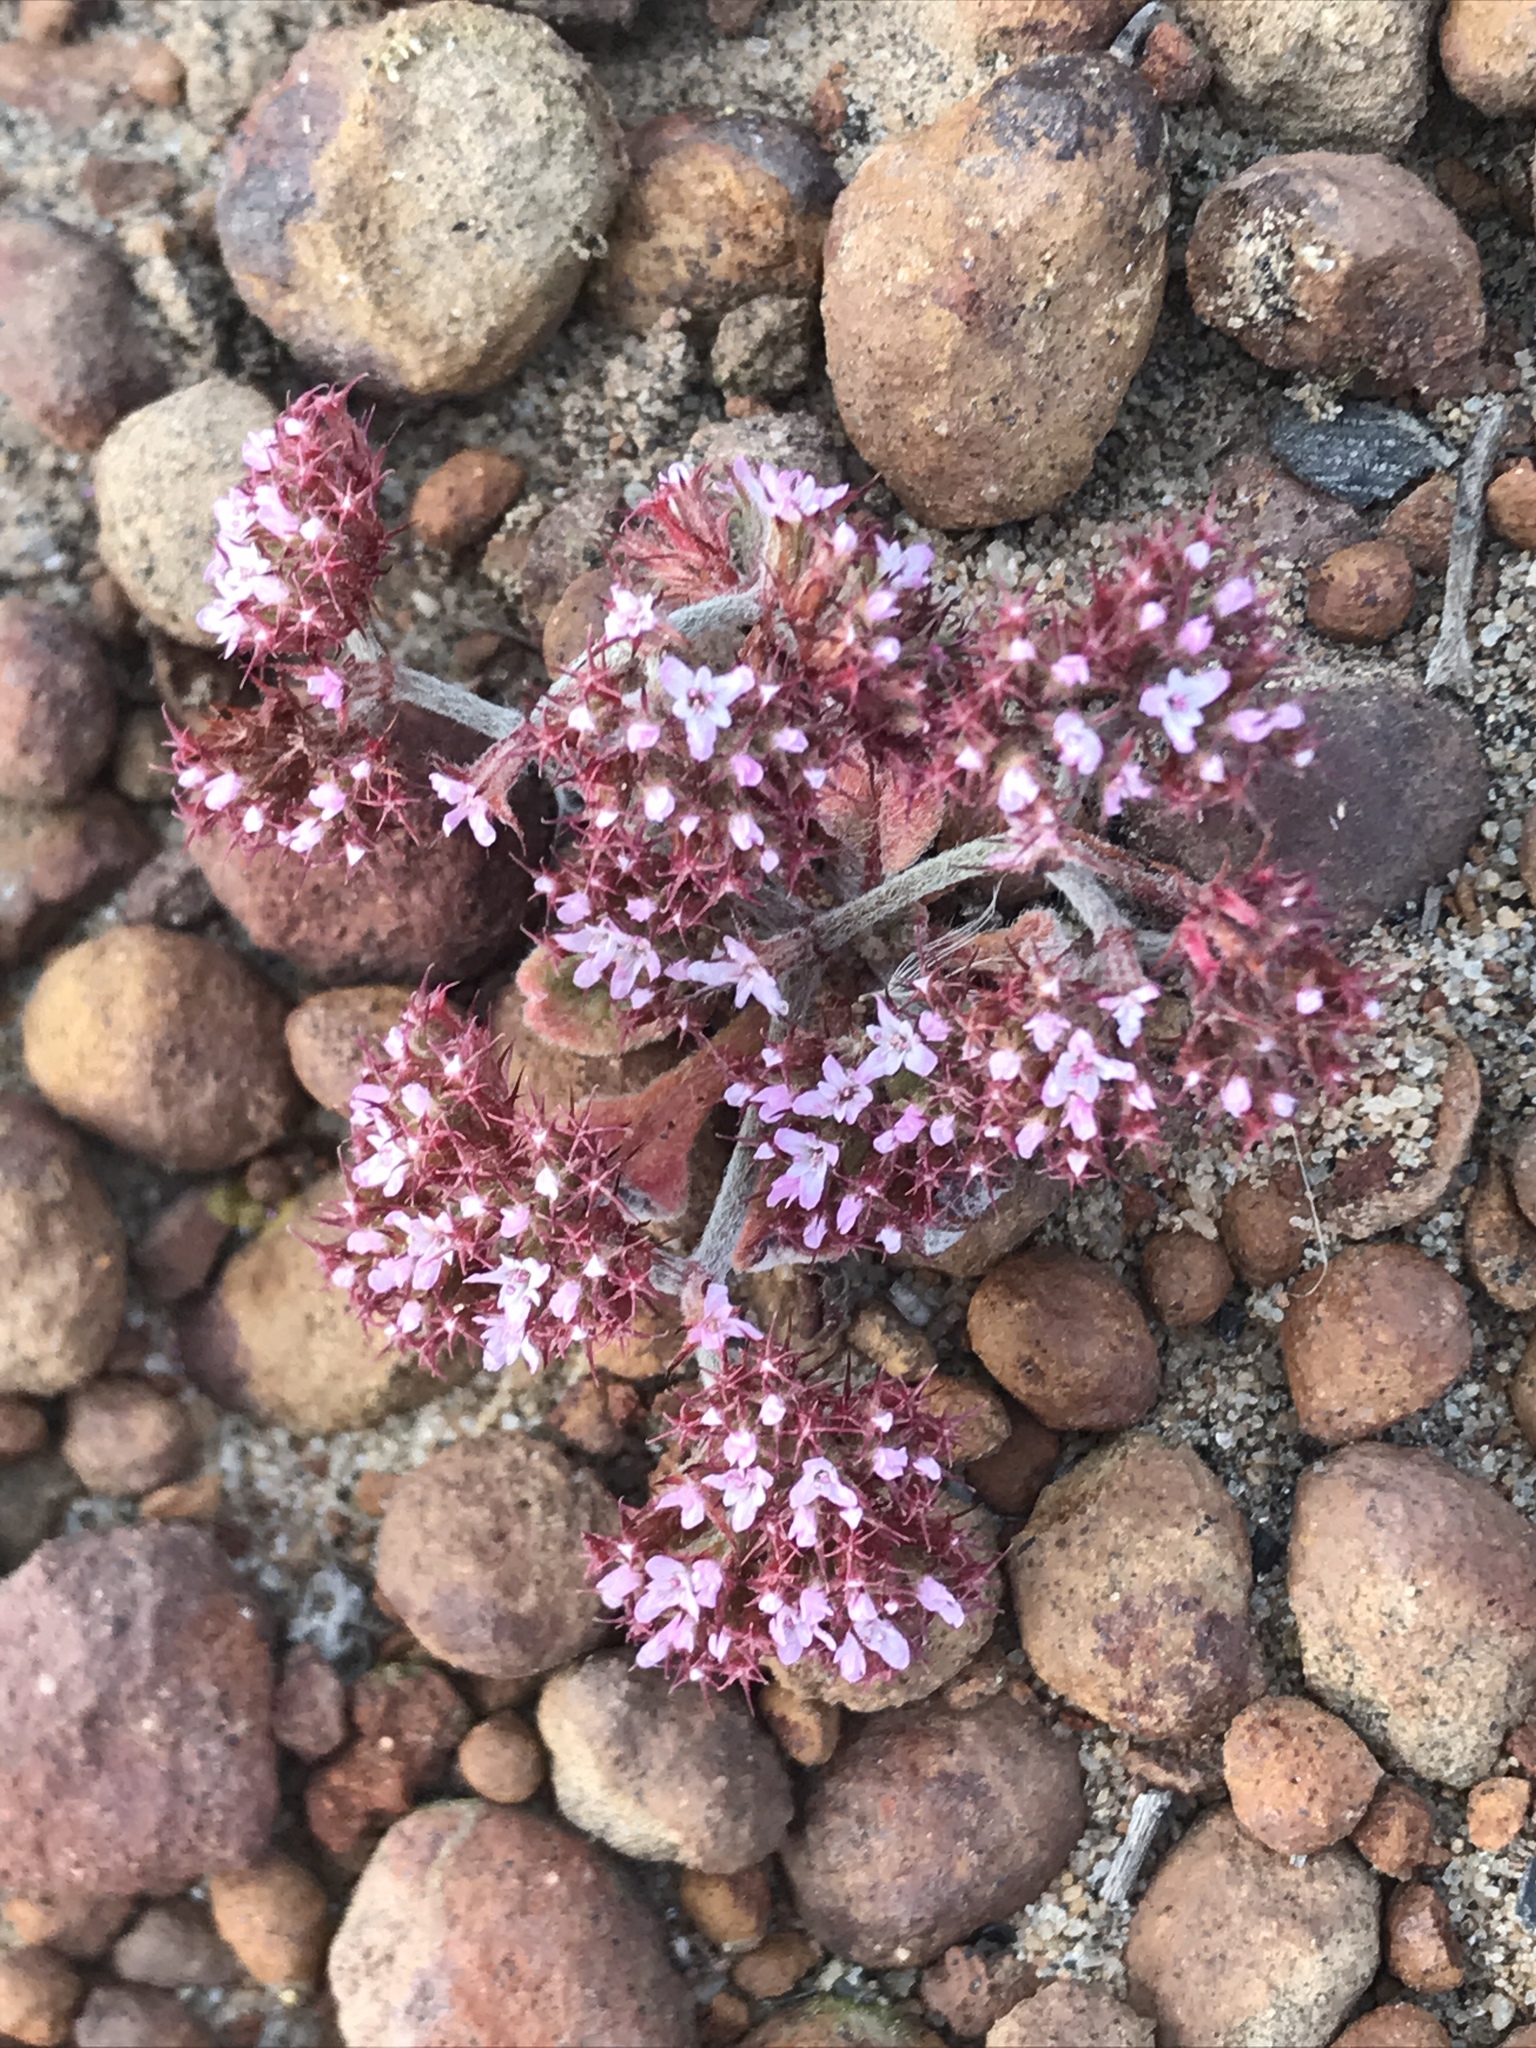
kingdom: Plantae
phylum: Tracheophyta
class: Magnoliopsida
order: Caryophyllales
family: Polygonaceae
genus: Chorizanthe
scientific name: Chorizanthe staticoides
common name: Turkish rugging
